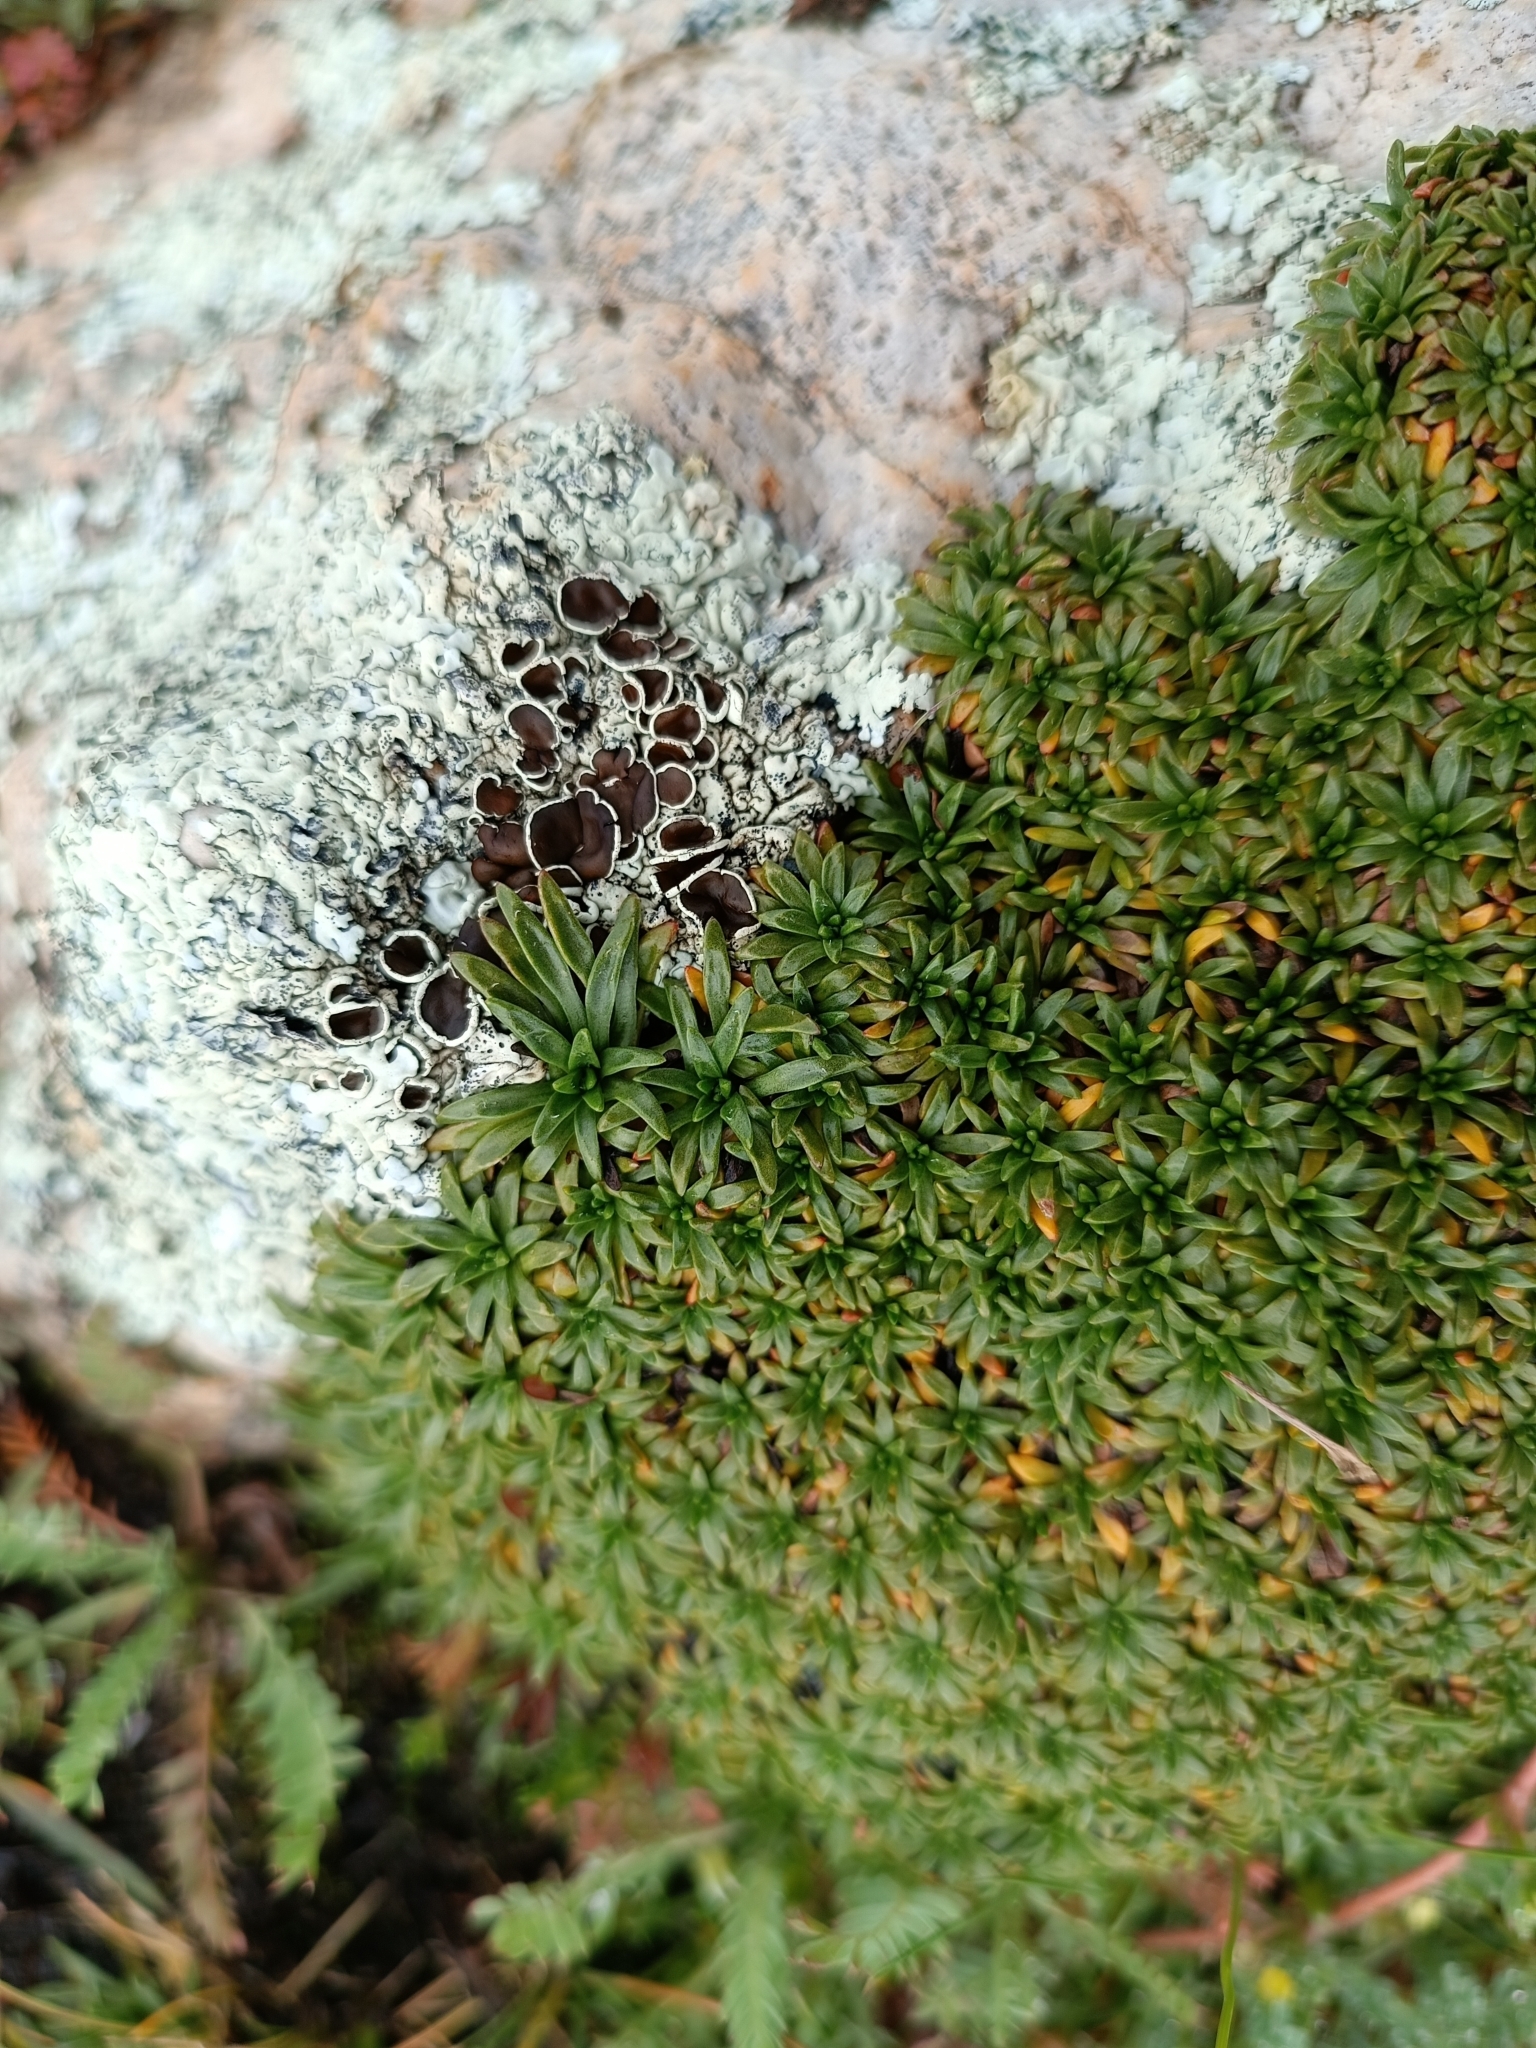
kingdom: Plantae
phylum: Tracheophyta
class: Magnoliopsida
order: Lamiales
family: Plantaginaceae
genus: Plantago
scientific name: Plantago rigida
